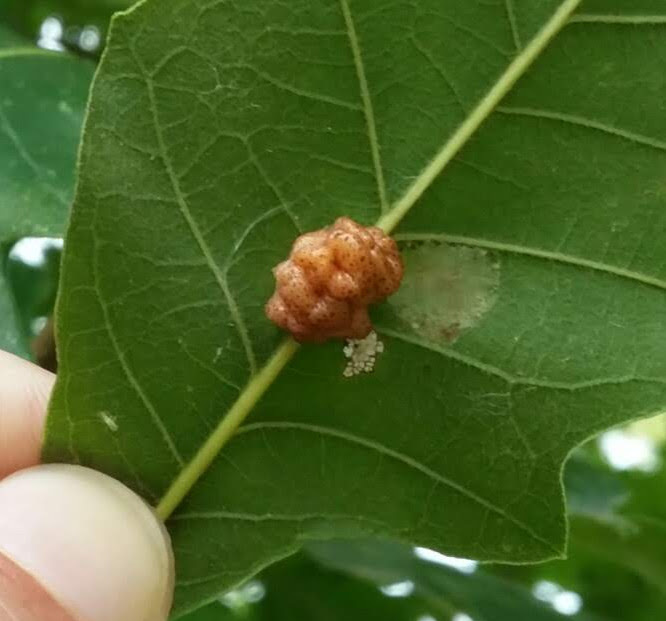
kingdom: Animalia
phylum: Arthropoda
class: Insecta
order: Hymenoptera
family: Cynipidae
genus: Andricus
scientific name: Andricus
